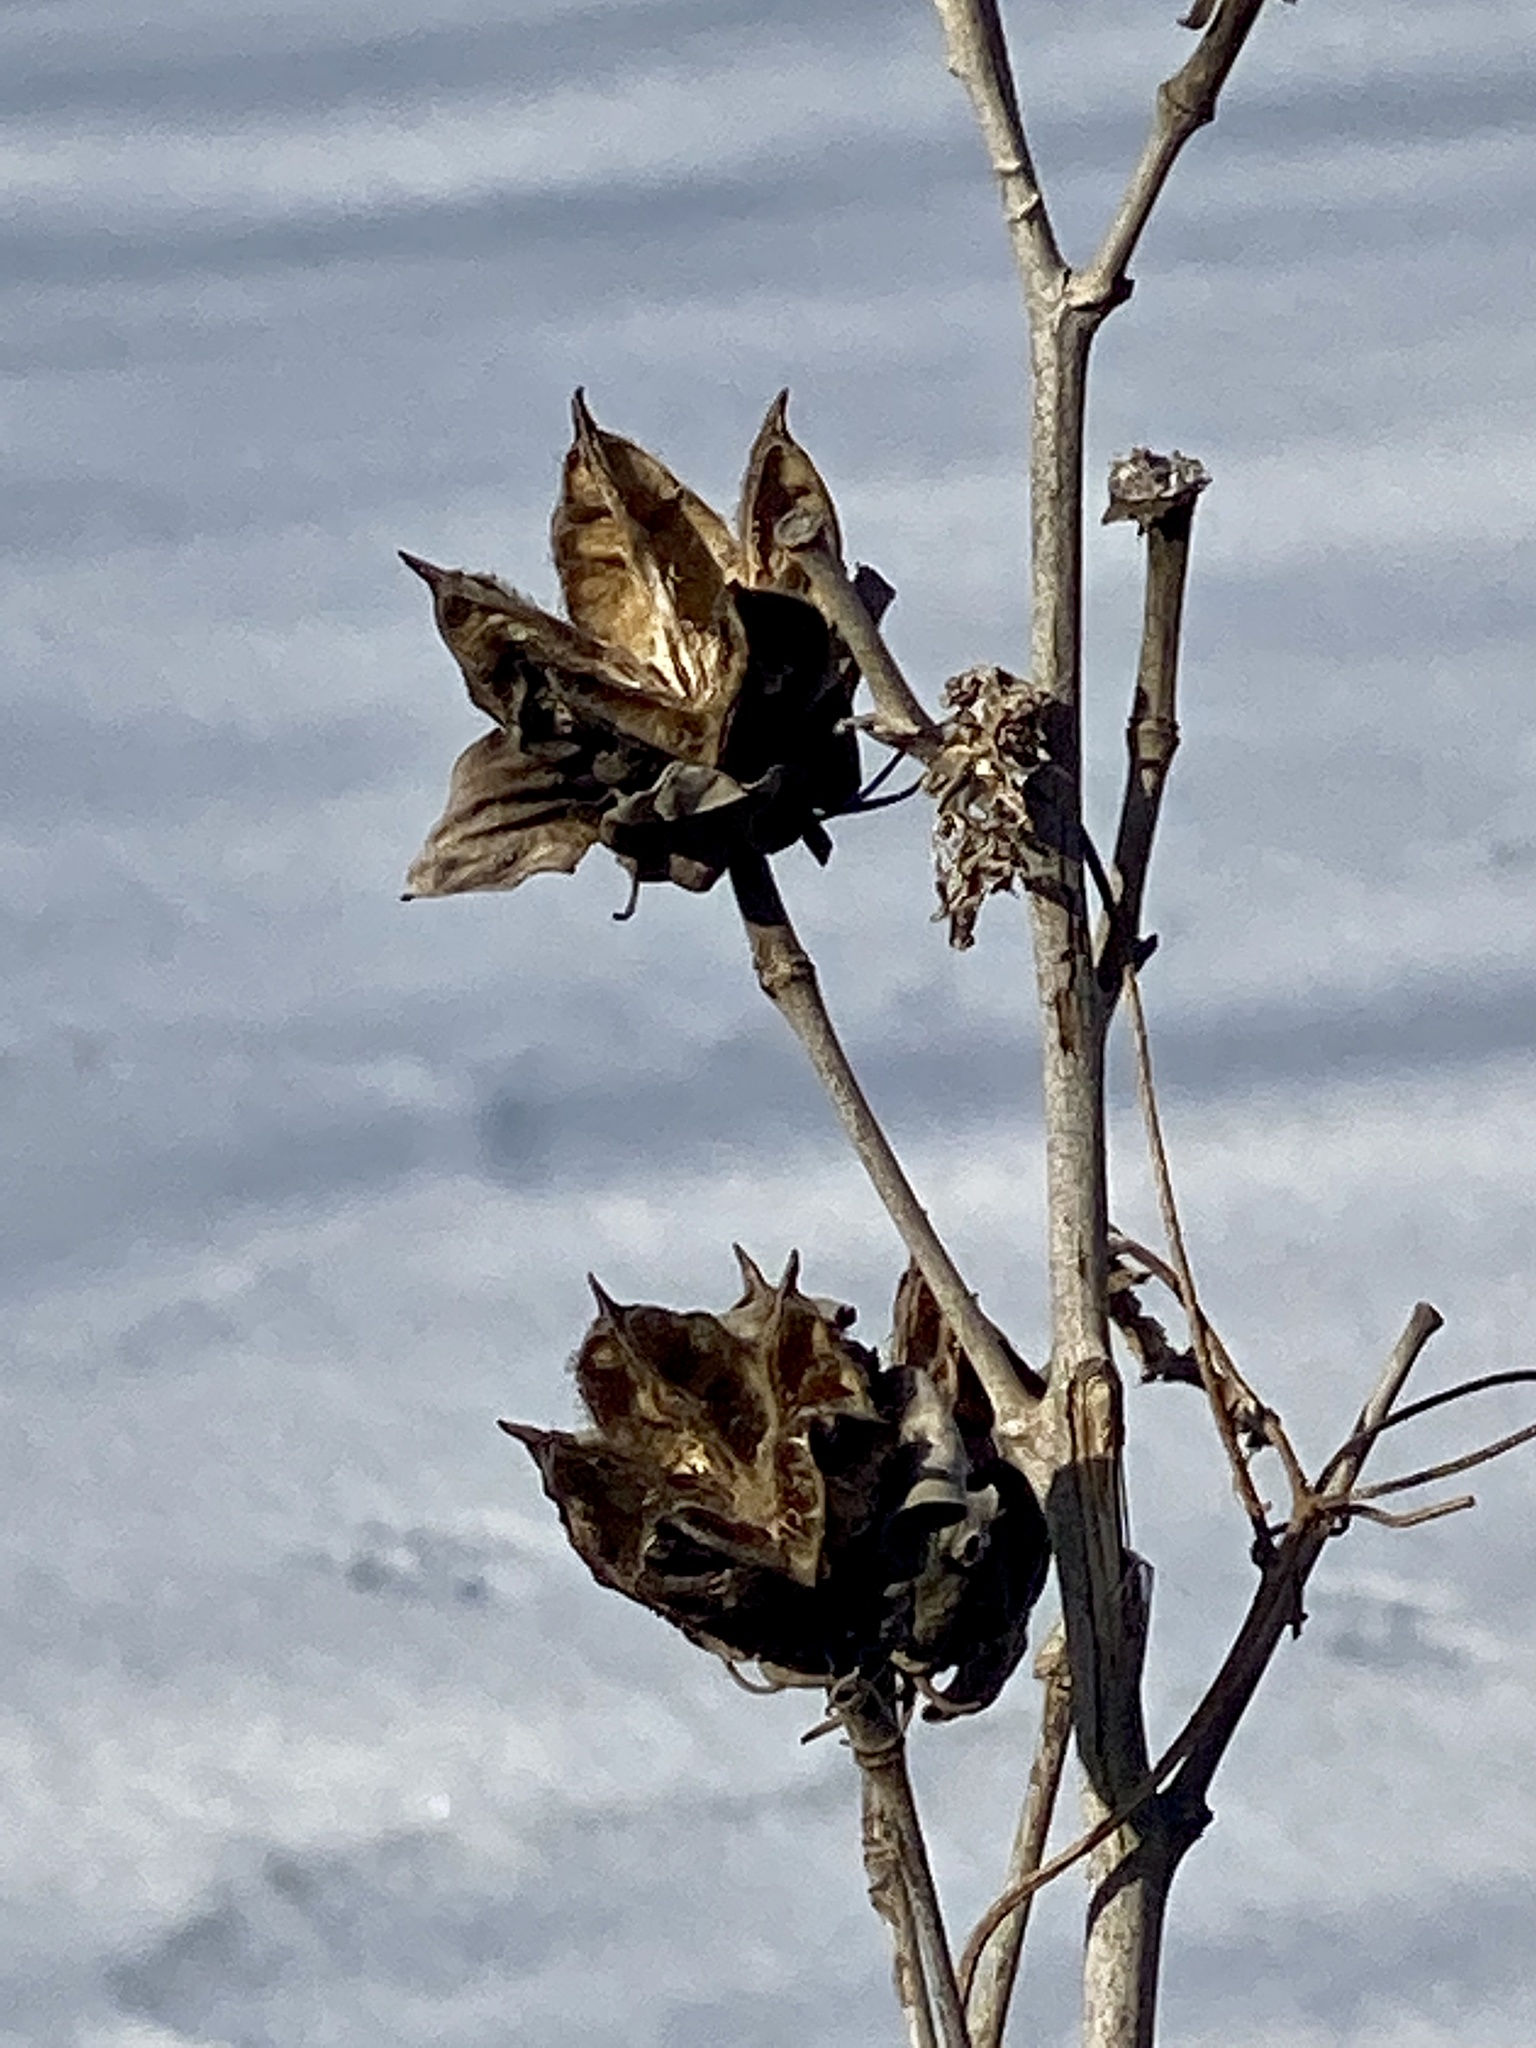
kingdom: Plantae
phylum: Tracheophyta
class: Magnoliopsida
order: Malvales
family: Malvaceae
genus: Hibiscus
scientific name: Hibiscus moscheutos
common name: Common rose-mallow
